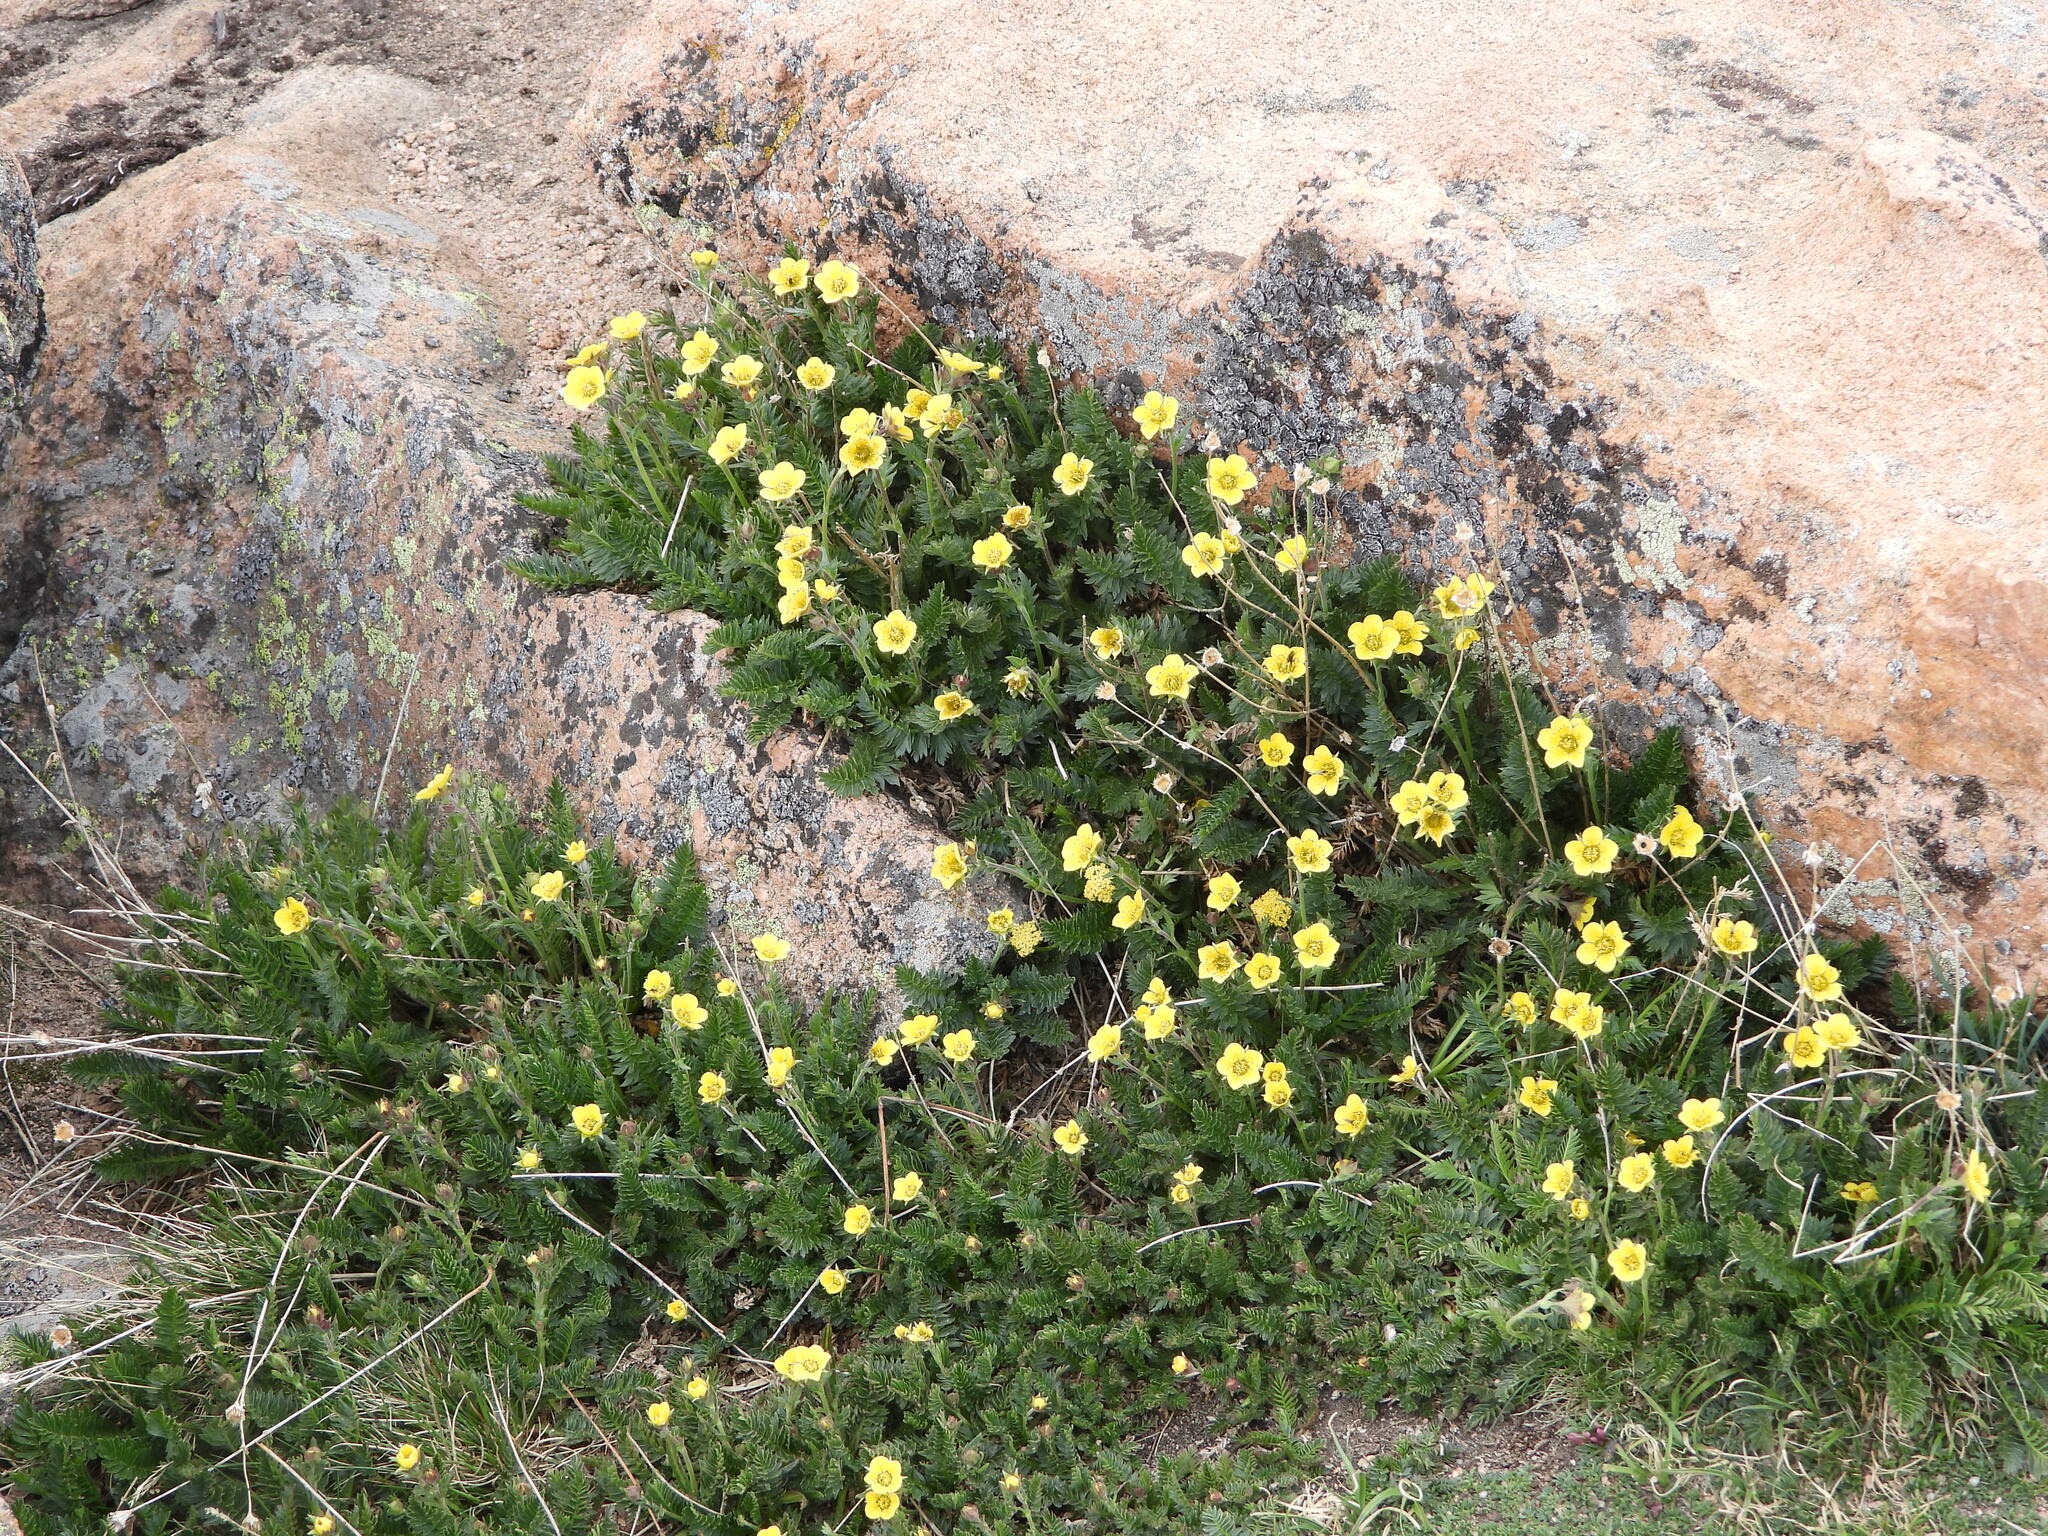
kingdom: Plantae
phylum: Tracheophyta
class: Magnoliopsida
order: Rosales
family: Rosaceae
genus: Geum
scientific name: Geum rossii
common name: Alpine avens
